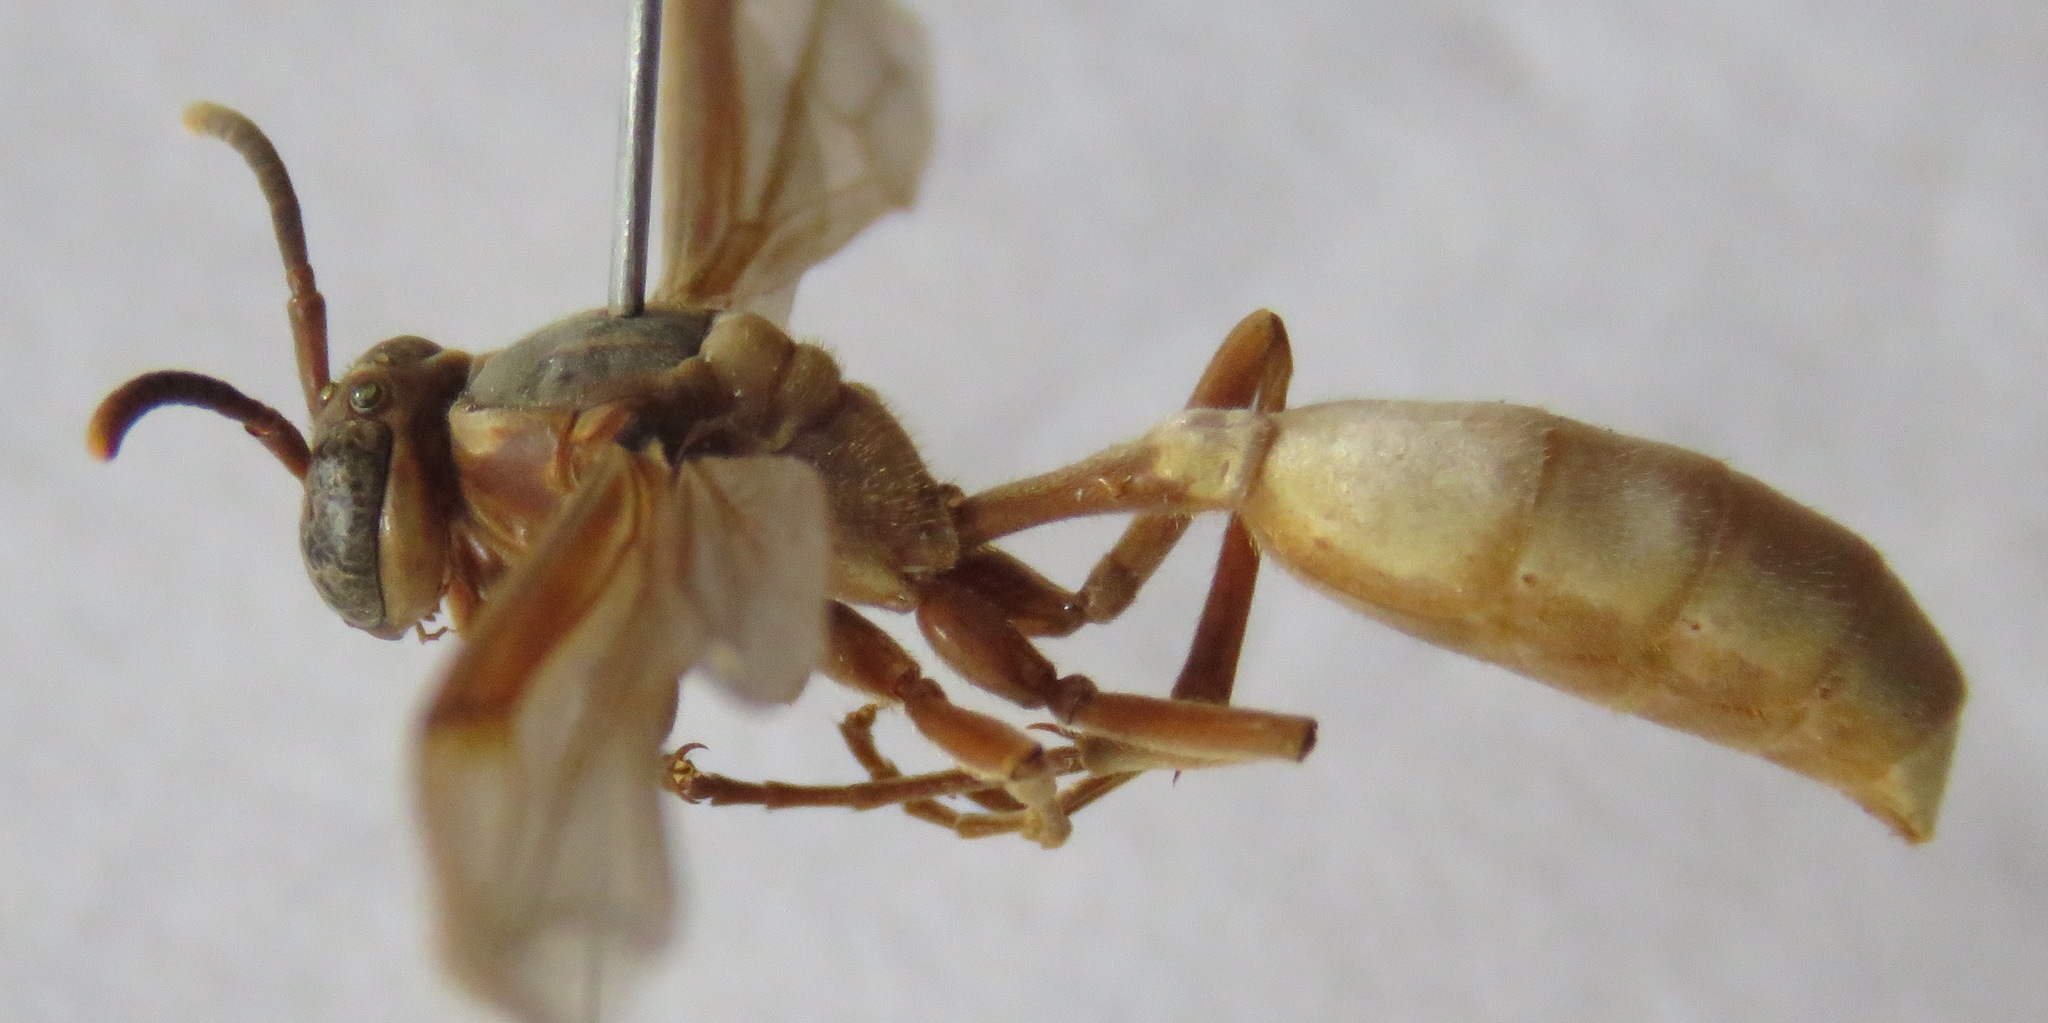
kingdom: Animalia
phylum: Arthropoda
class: Insecta
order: Hymenoptera
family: Vespidae
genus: Apoica
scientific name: Apoica pallens
